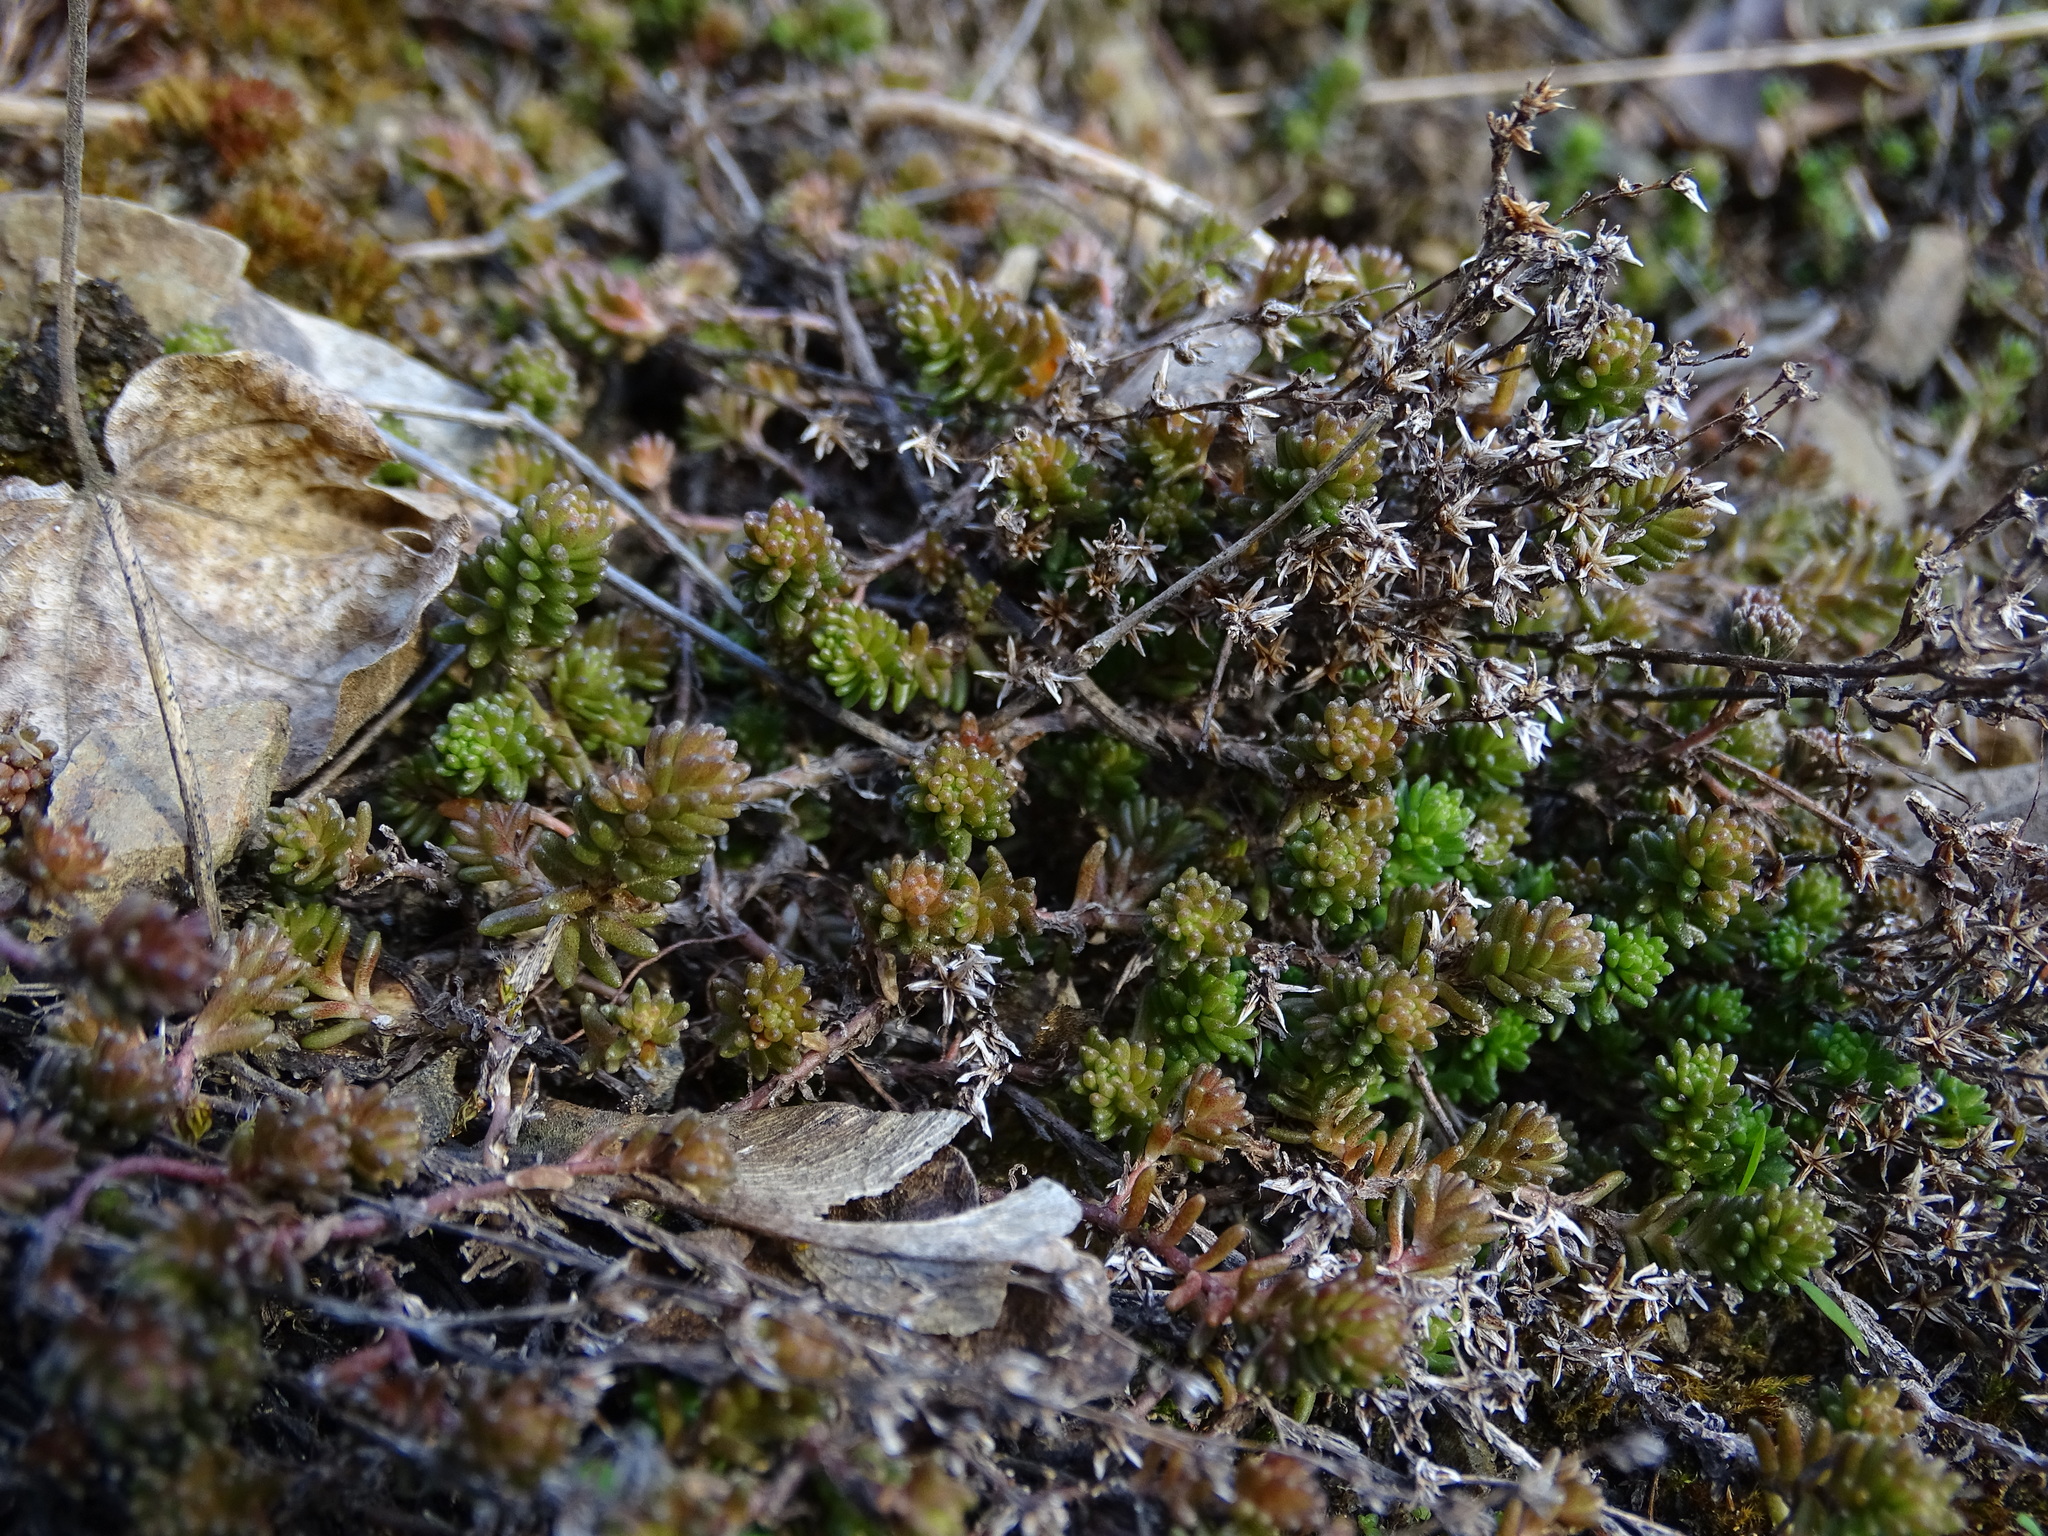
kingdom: Plantae
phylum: Tracheophyta
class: Magnoliopsida
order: Saxifragales
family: Crassulaceae
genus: Sedum
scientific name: Sedum sexangulare
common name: Tasteless stonecrop
